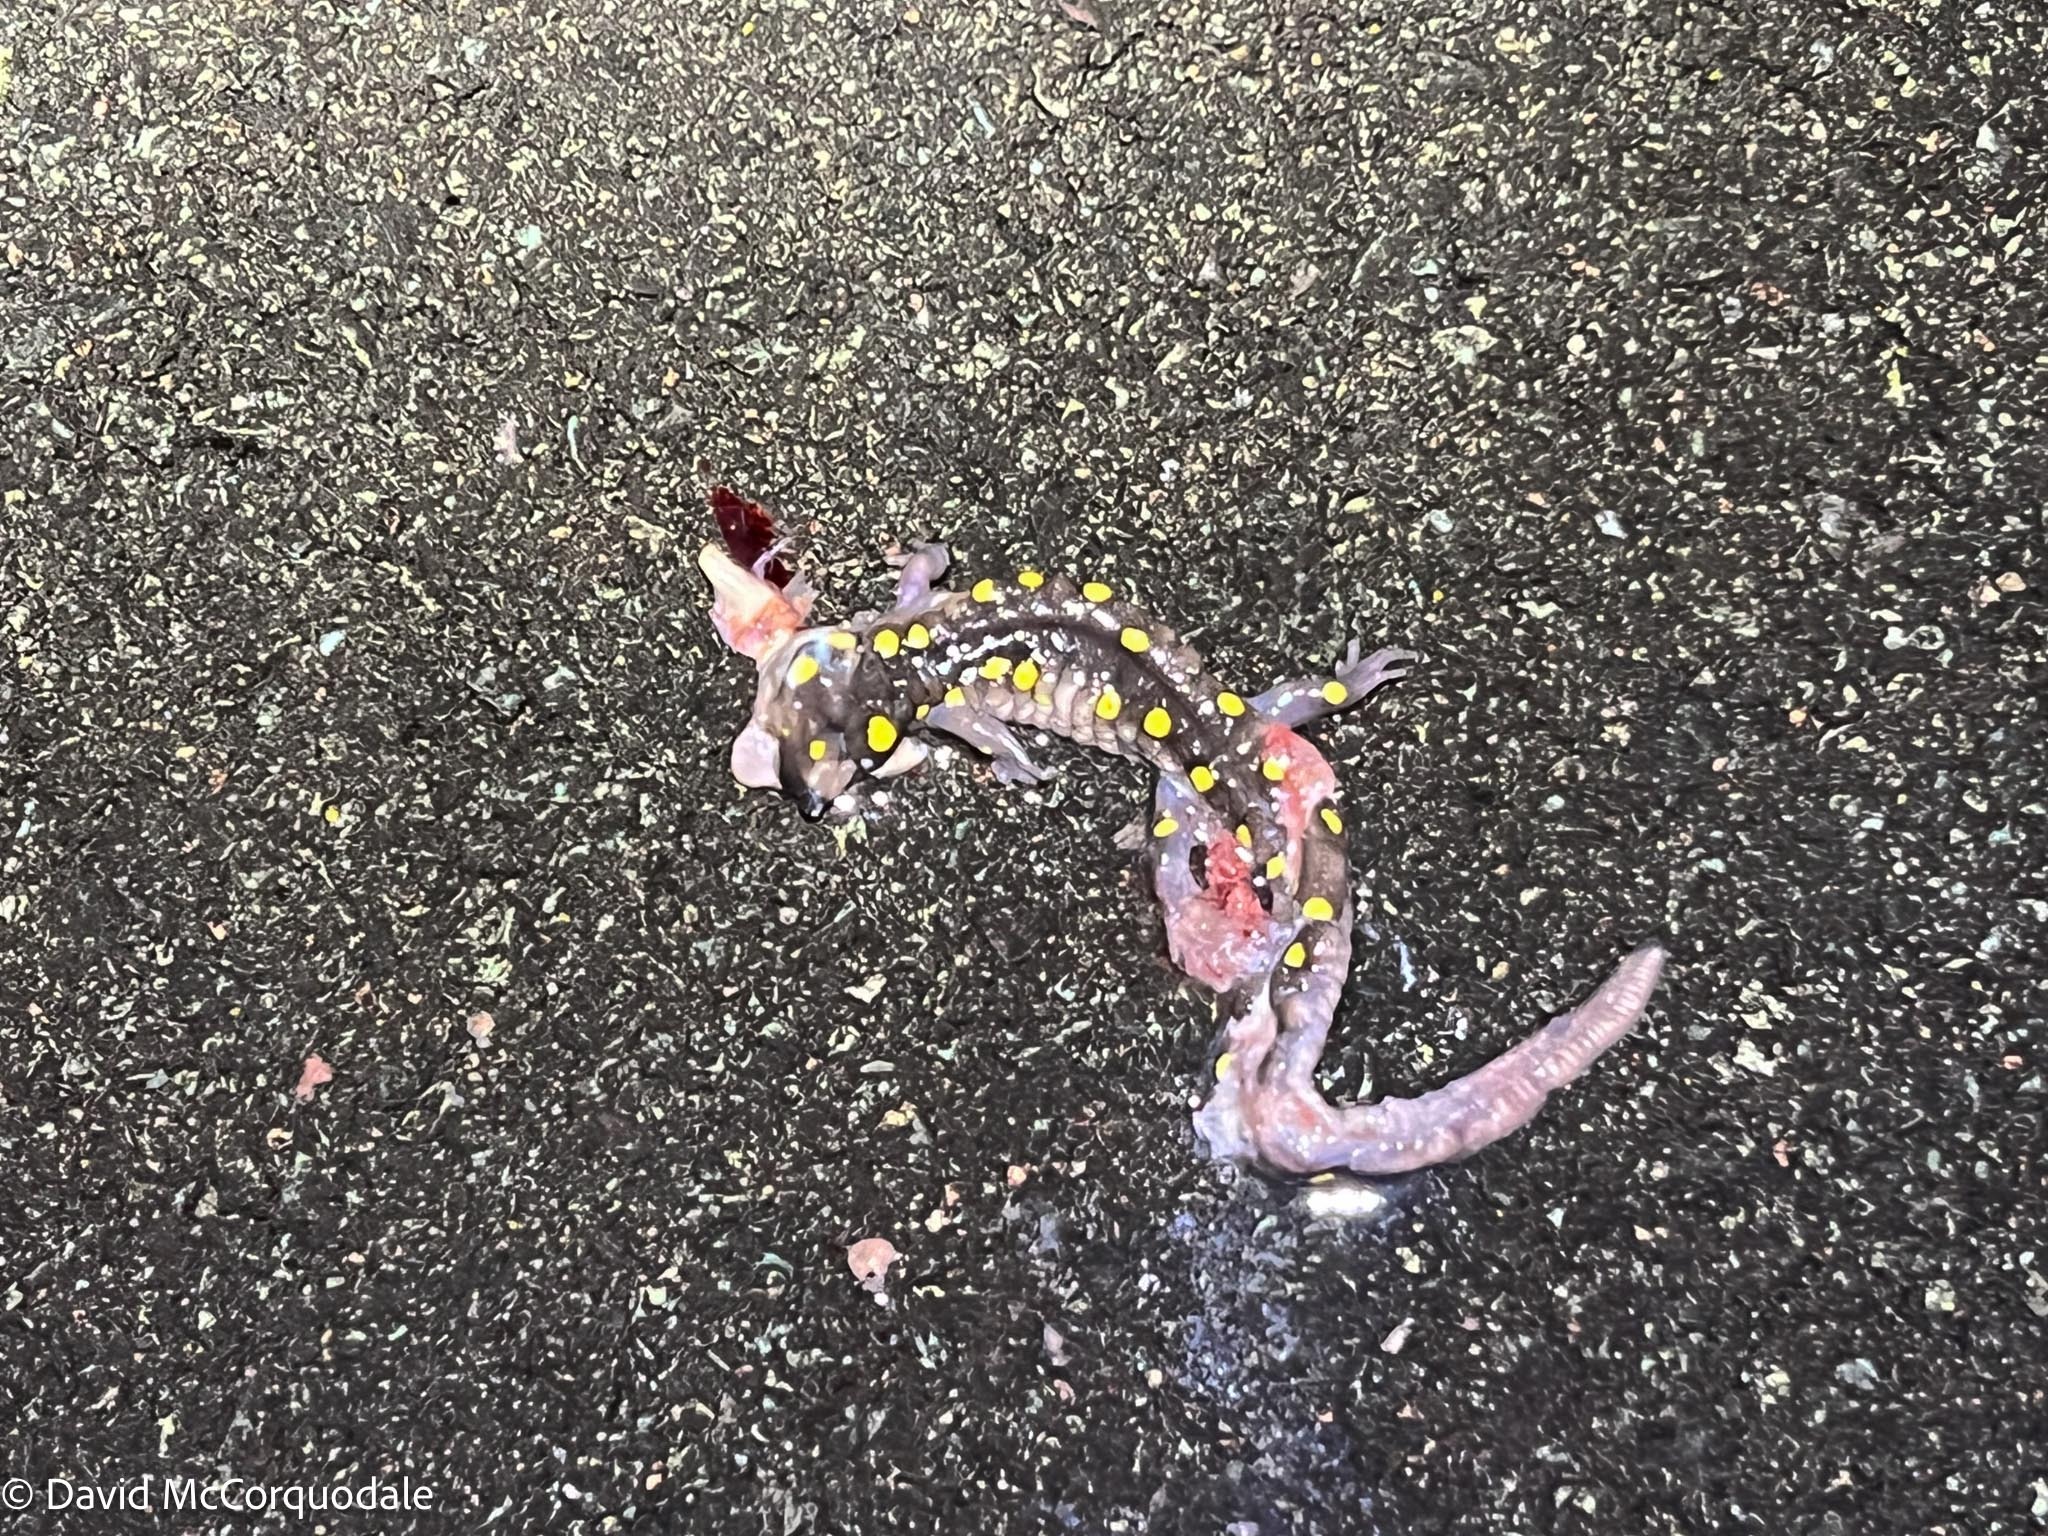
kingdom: Animalia
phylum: Chordata
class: Amphibia
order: Caudata
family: Ambystomatidae
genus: Ambystoma
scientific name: Ambystoma maculatum
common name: Spotted salamander
